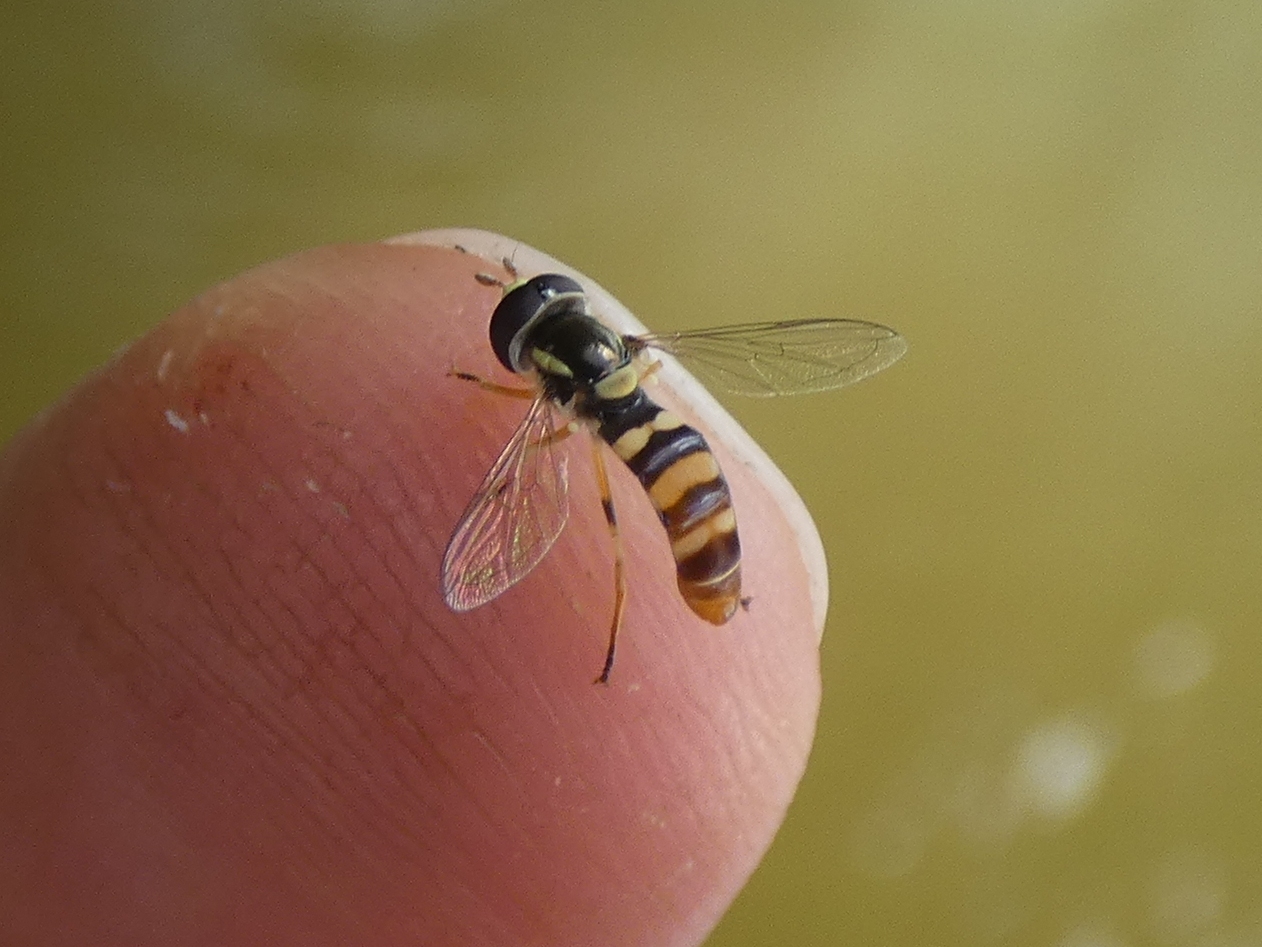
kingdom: Animalia
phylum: Arthropoda
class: Insecta
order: Diptera
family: Syrphidae
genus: Ischiodon
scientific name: Ischiodon aegyptius
